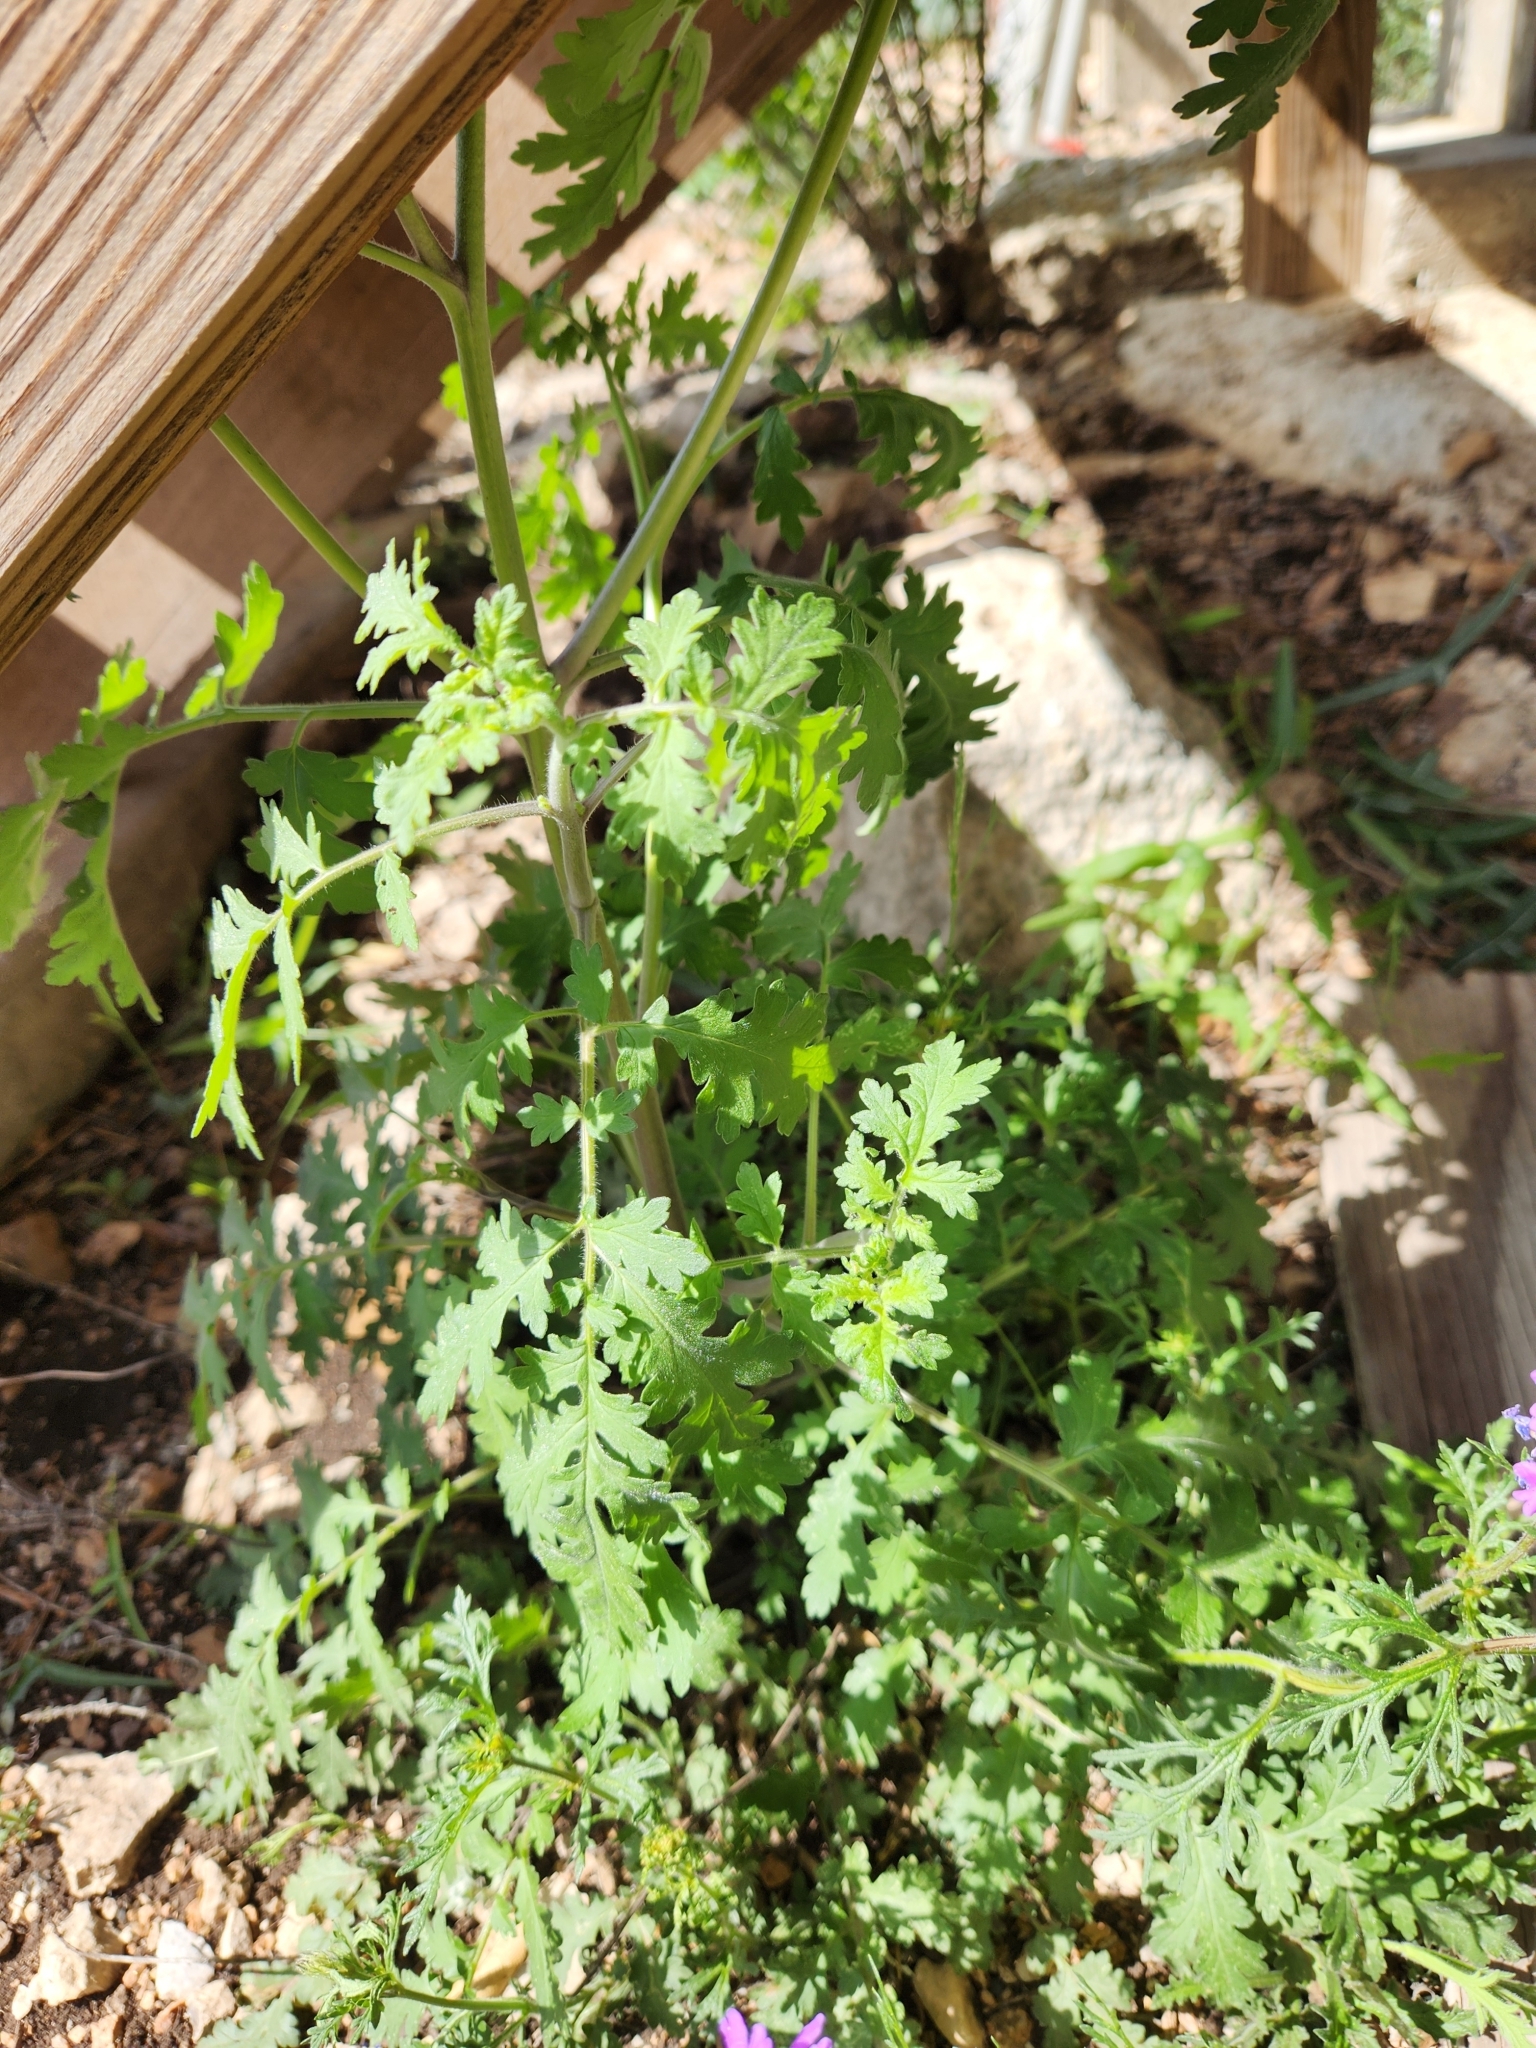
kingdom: Plantae
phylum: Tracheophyta
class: Magnoliopsida
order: Boraginales
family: Hydrophyllaceae
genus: Phacelia
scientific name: Phacelia congesta
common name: Blue curls
